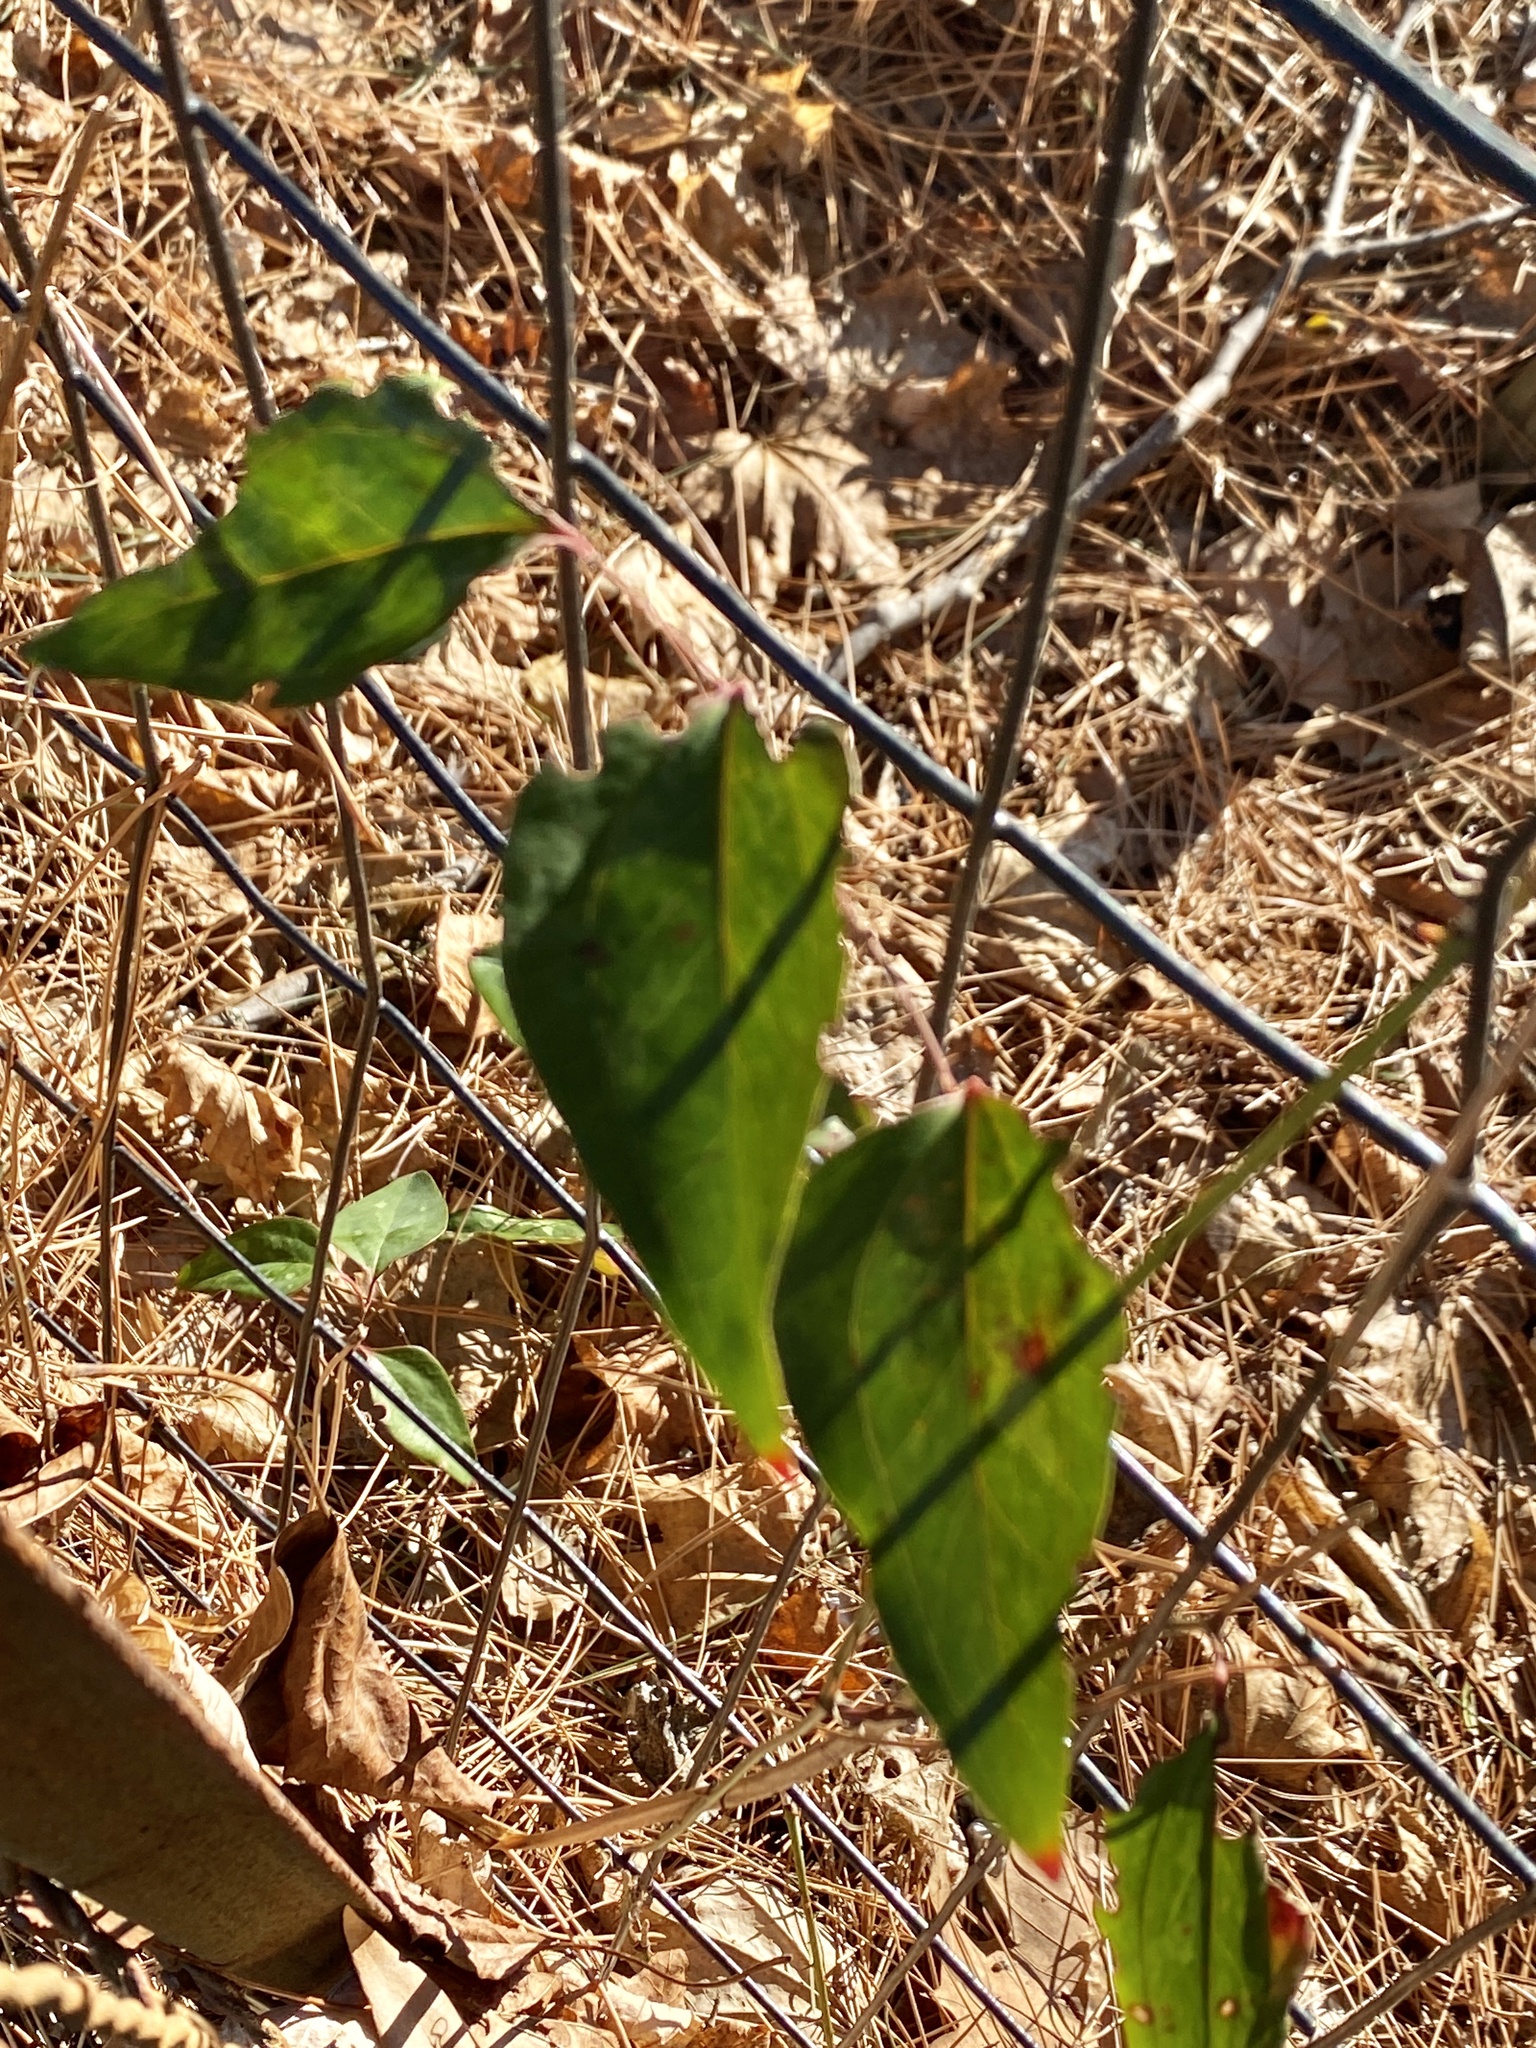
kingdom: Plantae
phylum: Tracheophyta
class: Liliopsida
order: Liliales
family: Smilacaceae
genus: Smilax
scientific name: Smilax glauca
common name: Cat greenbrier
